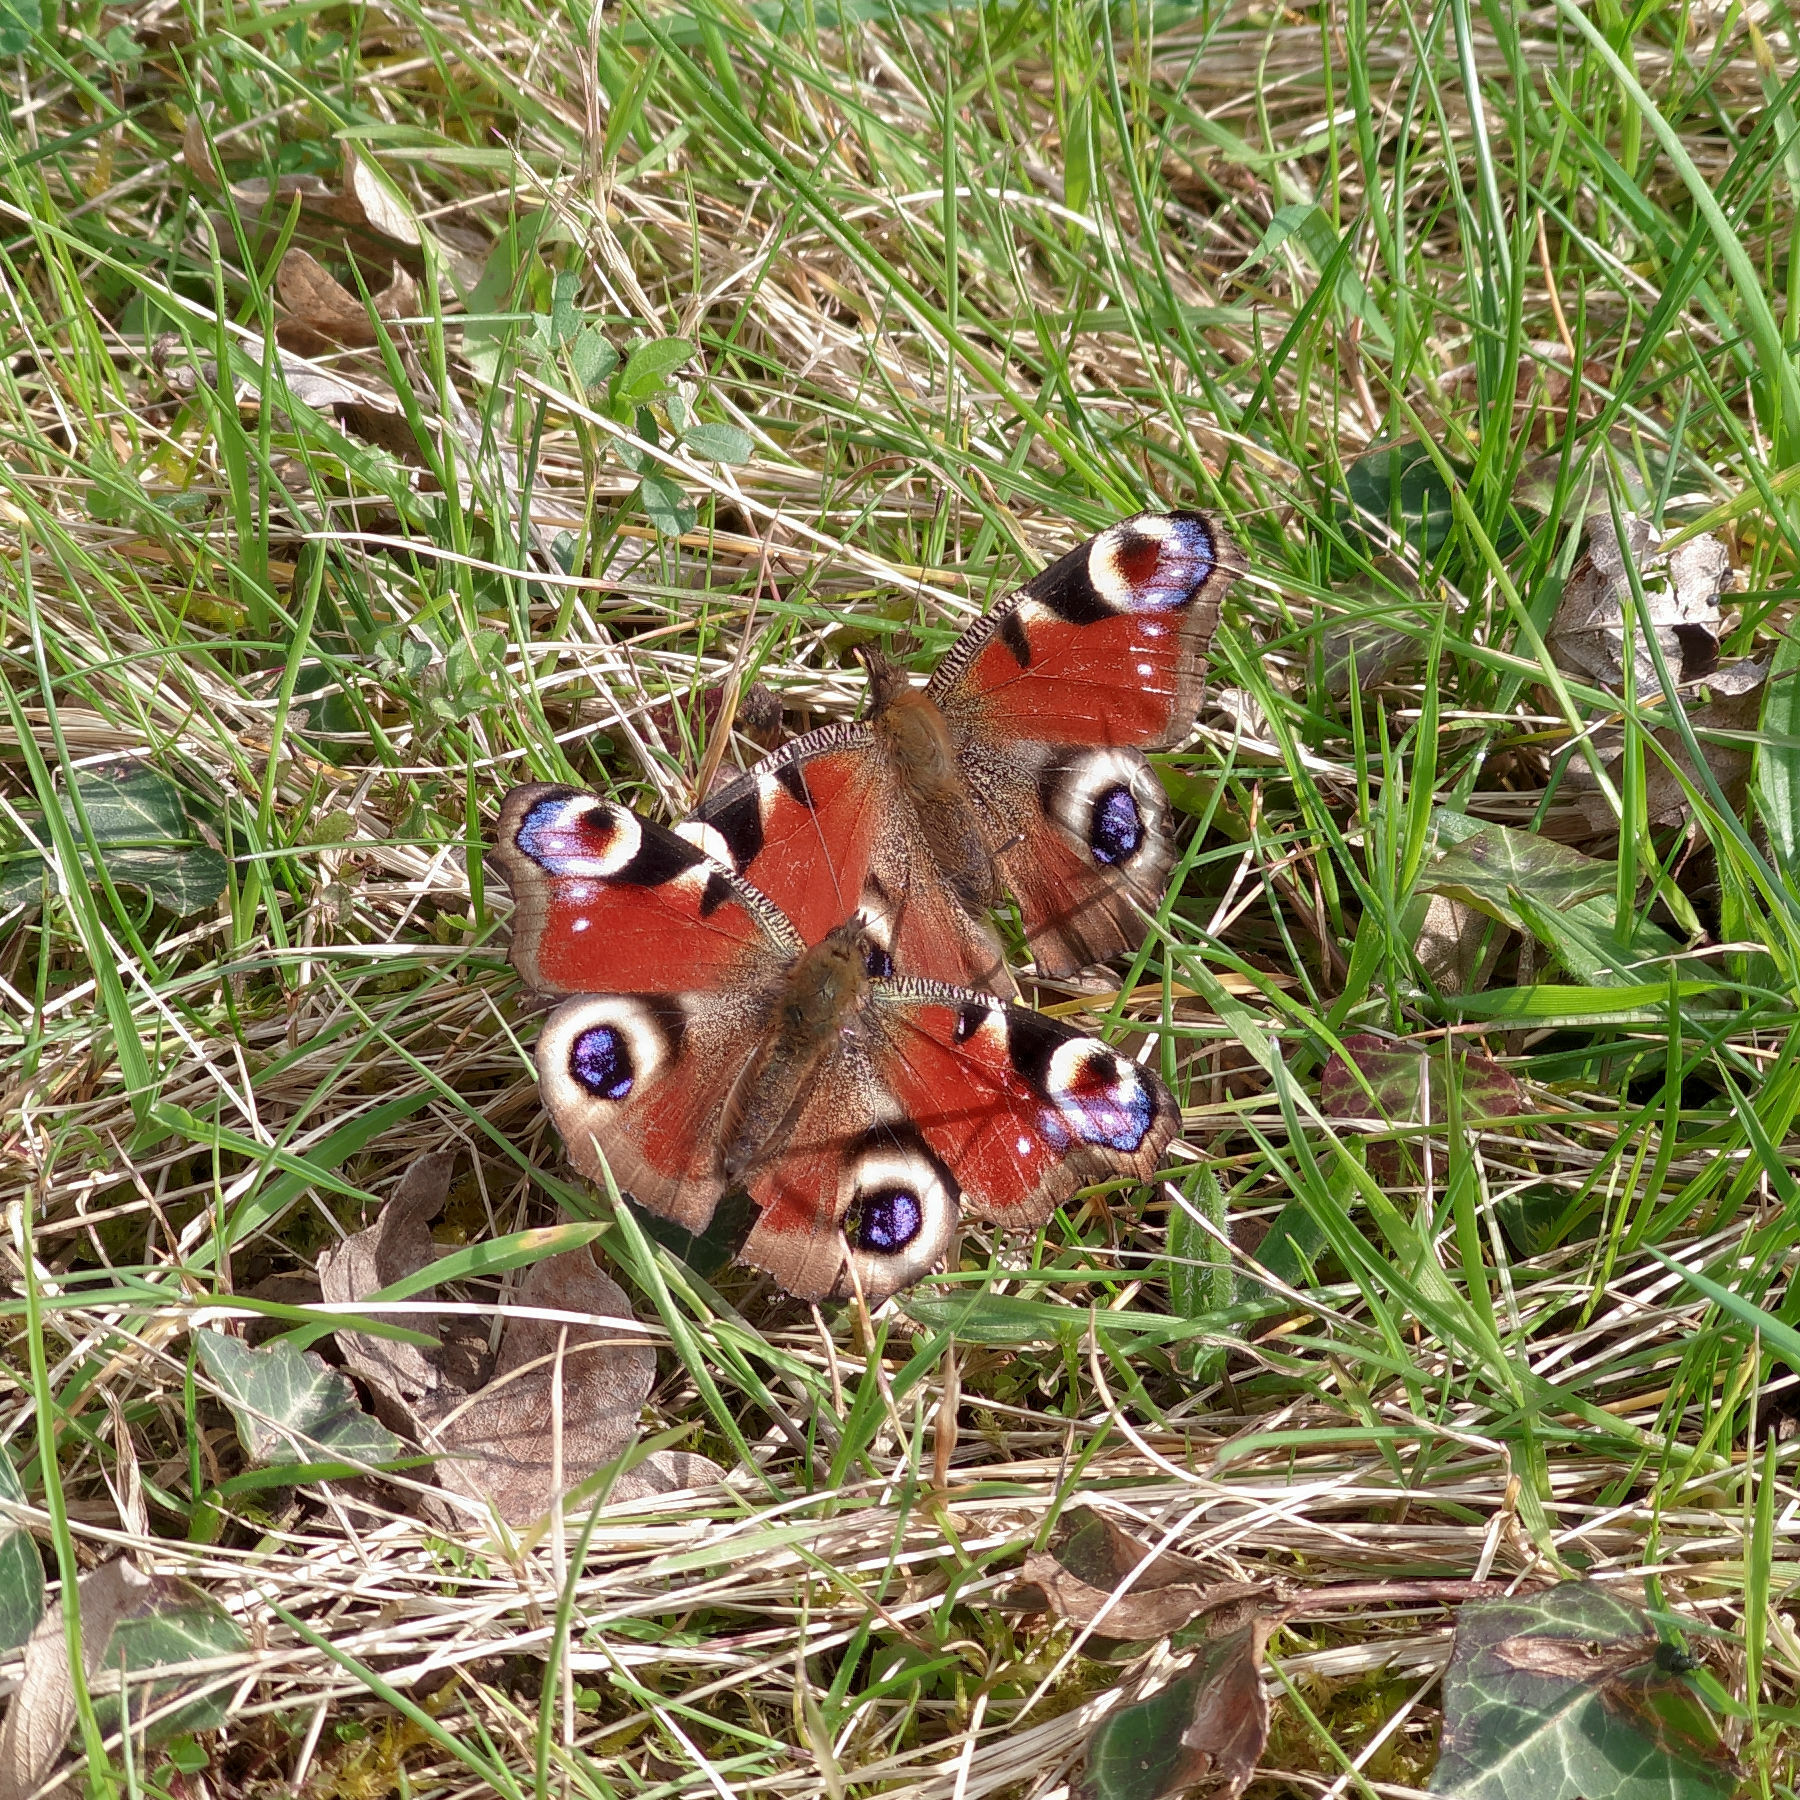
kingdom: Animalia
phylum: Arthropoda
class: Insecta
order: Lepidoptera
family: Nymphalidae
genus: Aglais
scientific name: Aglais io
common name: Peacock
